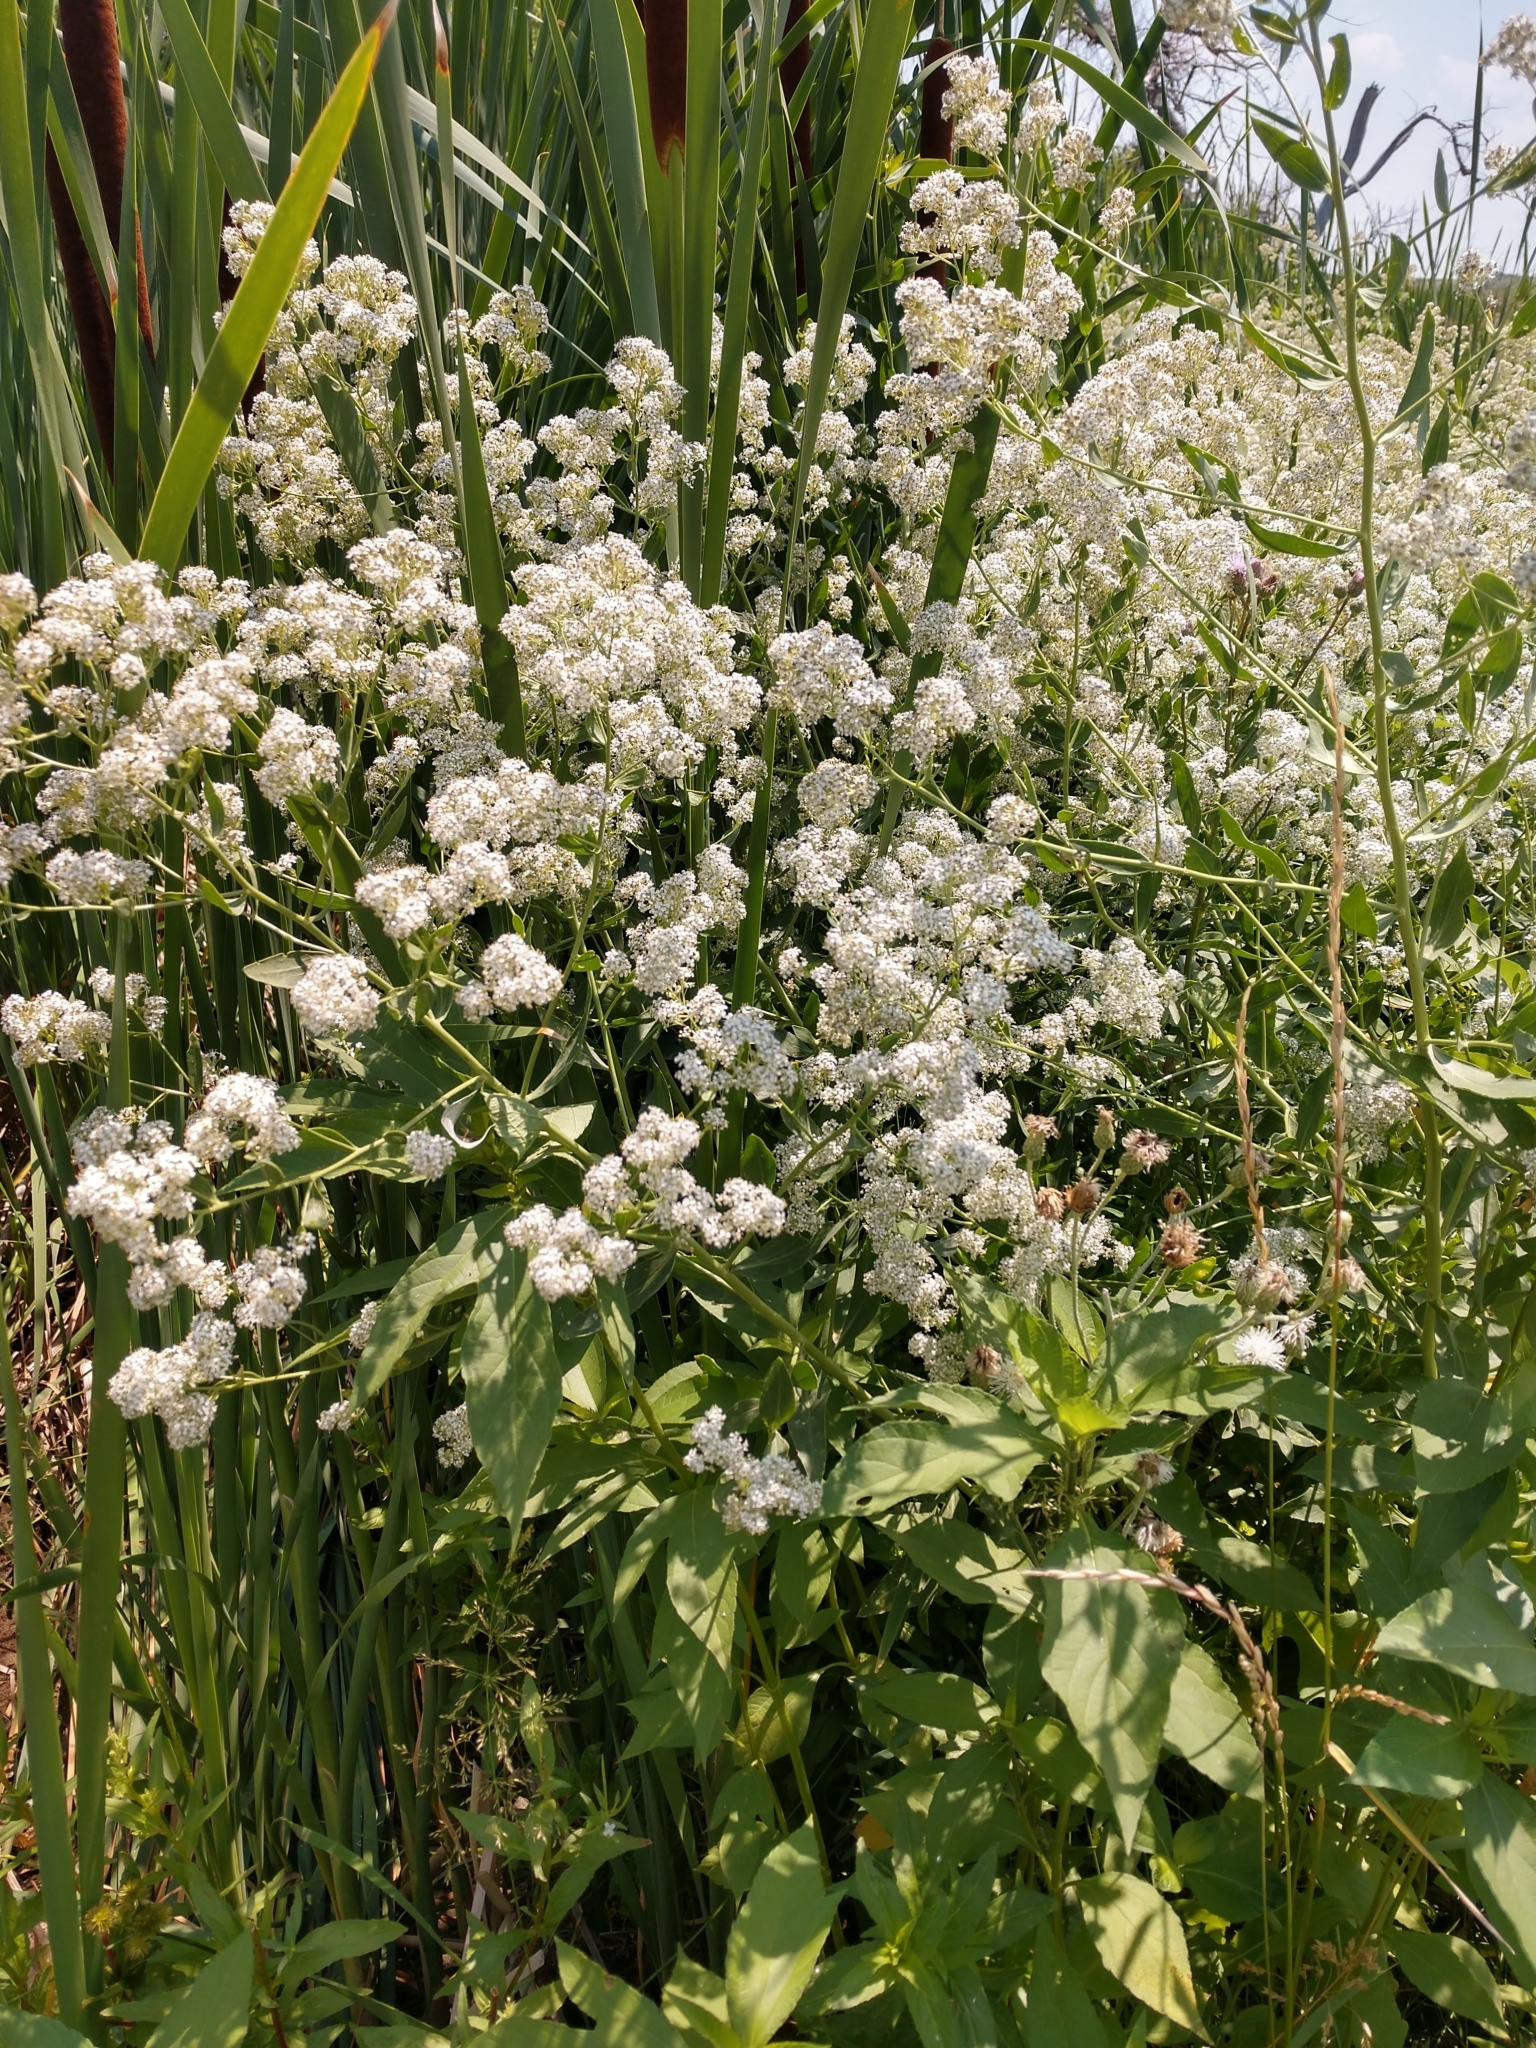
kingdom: Plantae
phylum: Tracheophyta
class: Magnoliopsida
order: Brassicales
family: Brassicaceae
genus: Lepidium
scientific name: Lepidium latifolium
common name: Dittander
